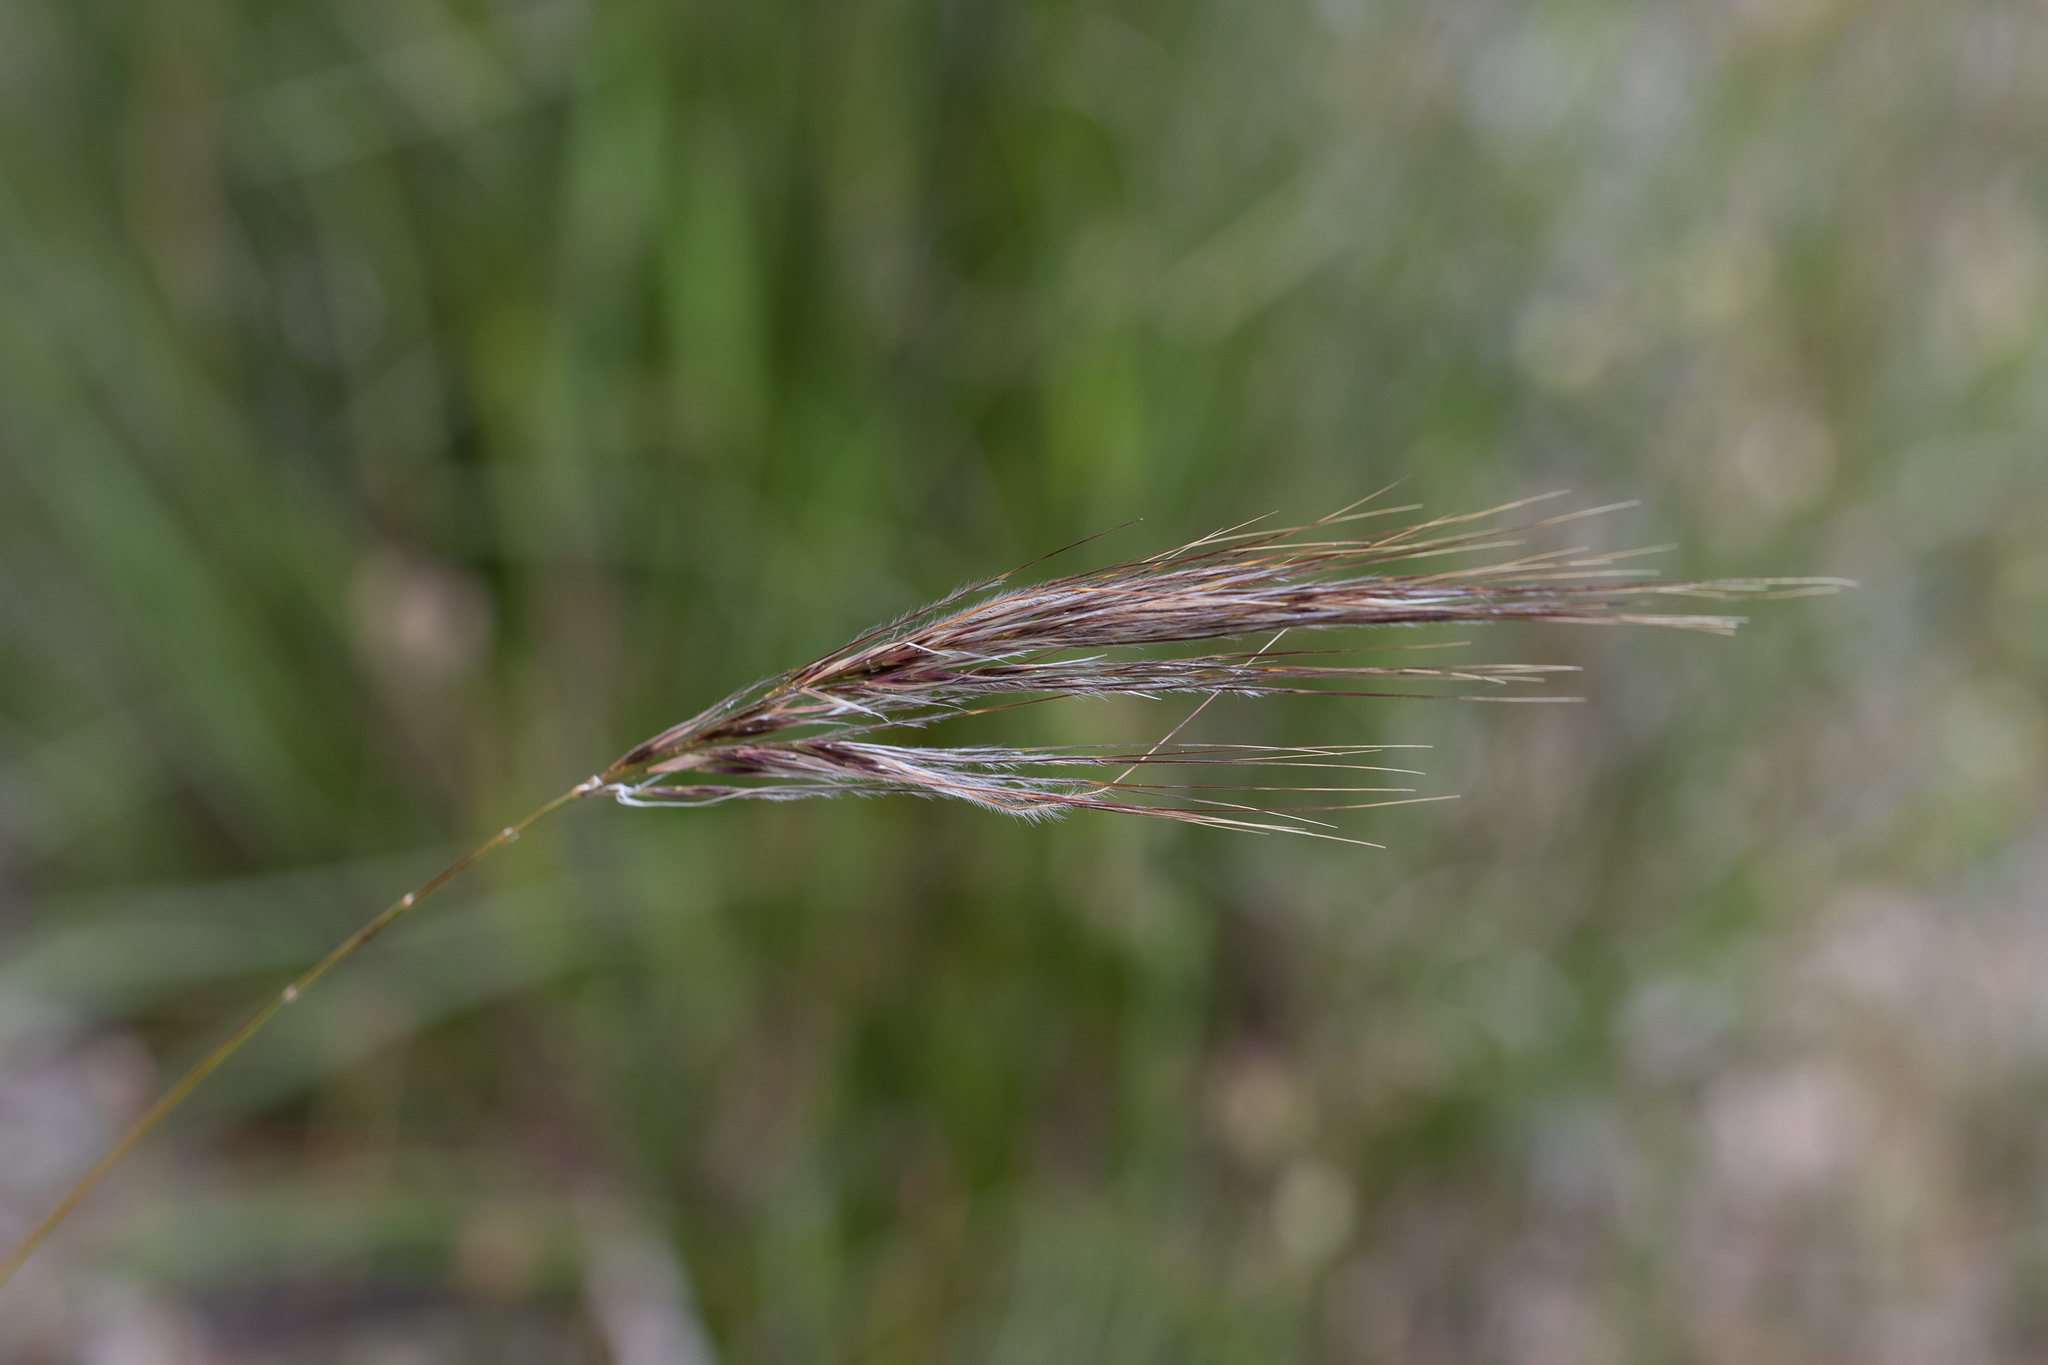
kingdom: Plantae
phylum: Tracheophyta
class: Liliopsida
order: Poales
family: Poaceae
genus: Austrostipa
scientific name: Austrostipa semibarbata
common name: Fibrous spear grass
